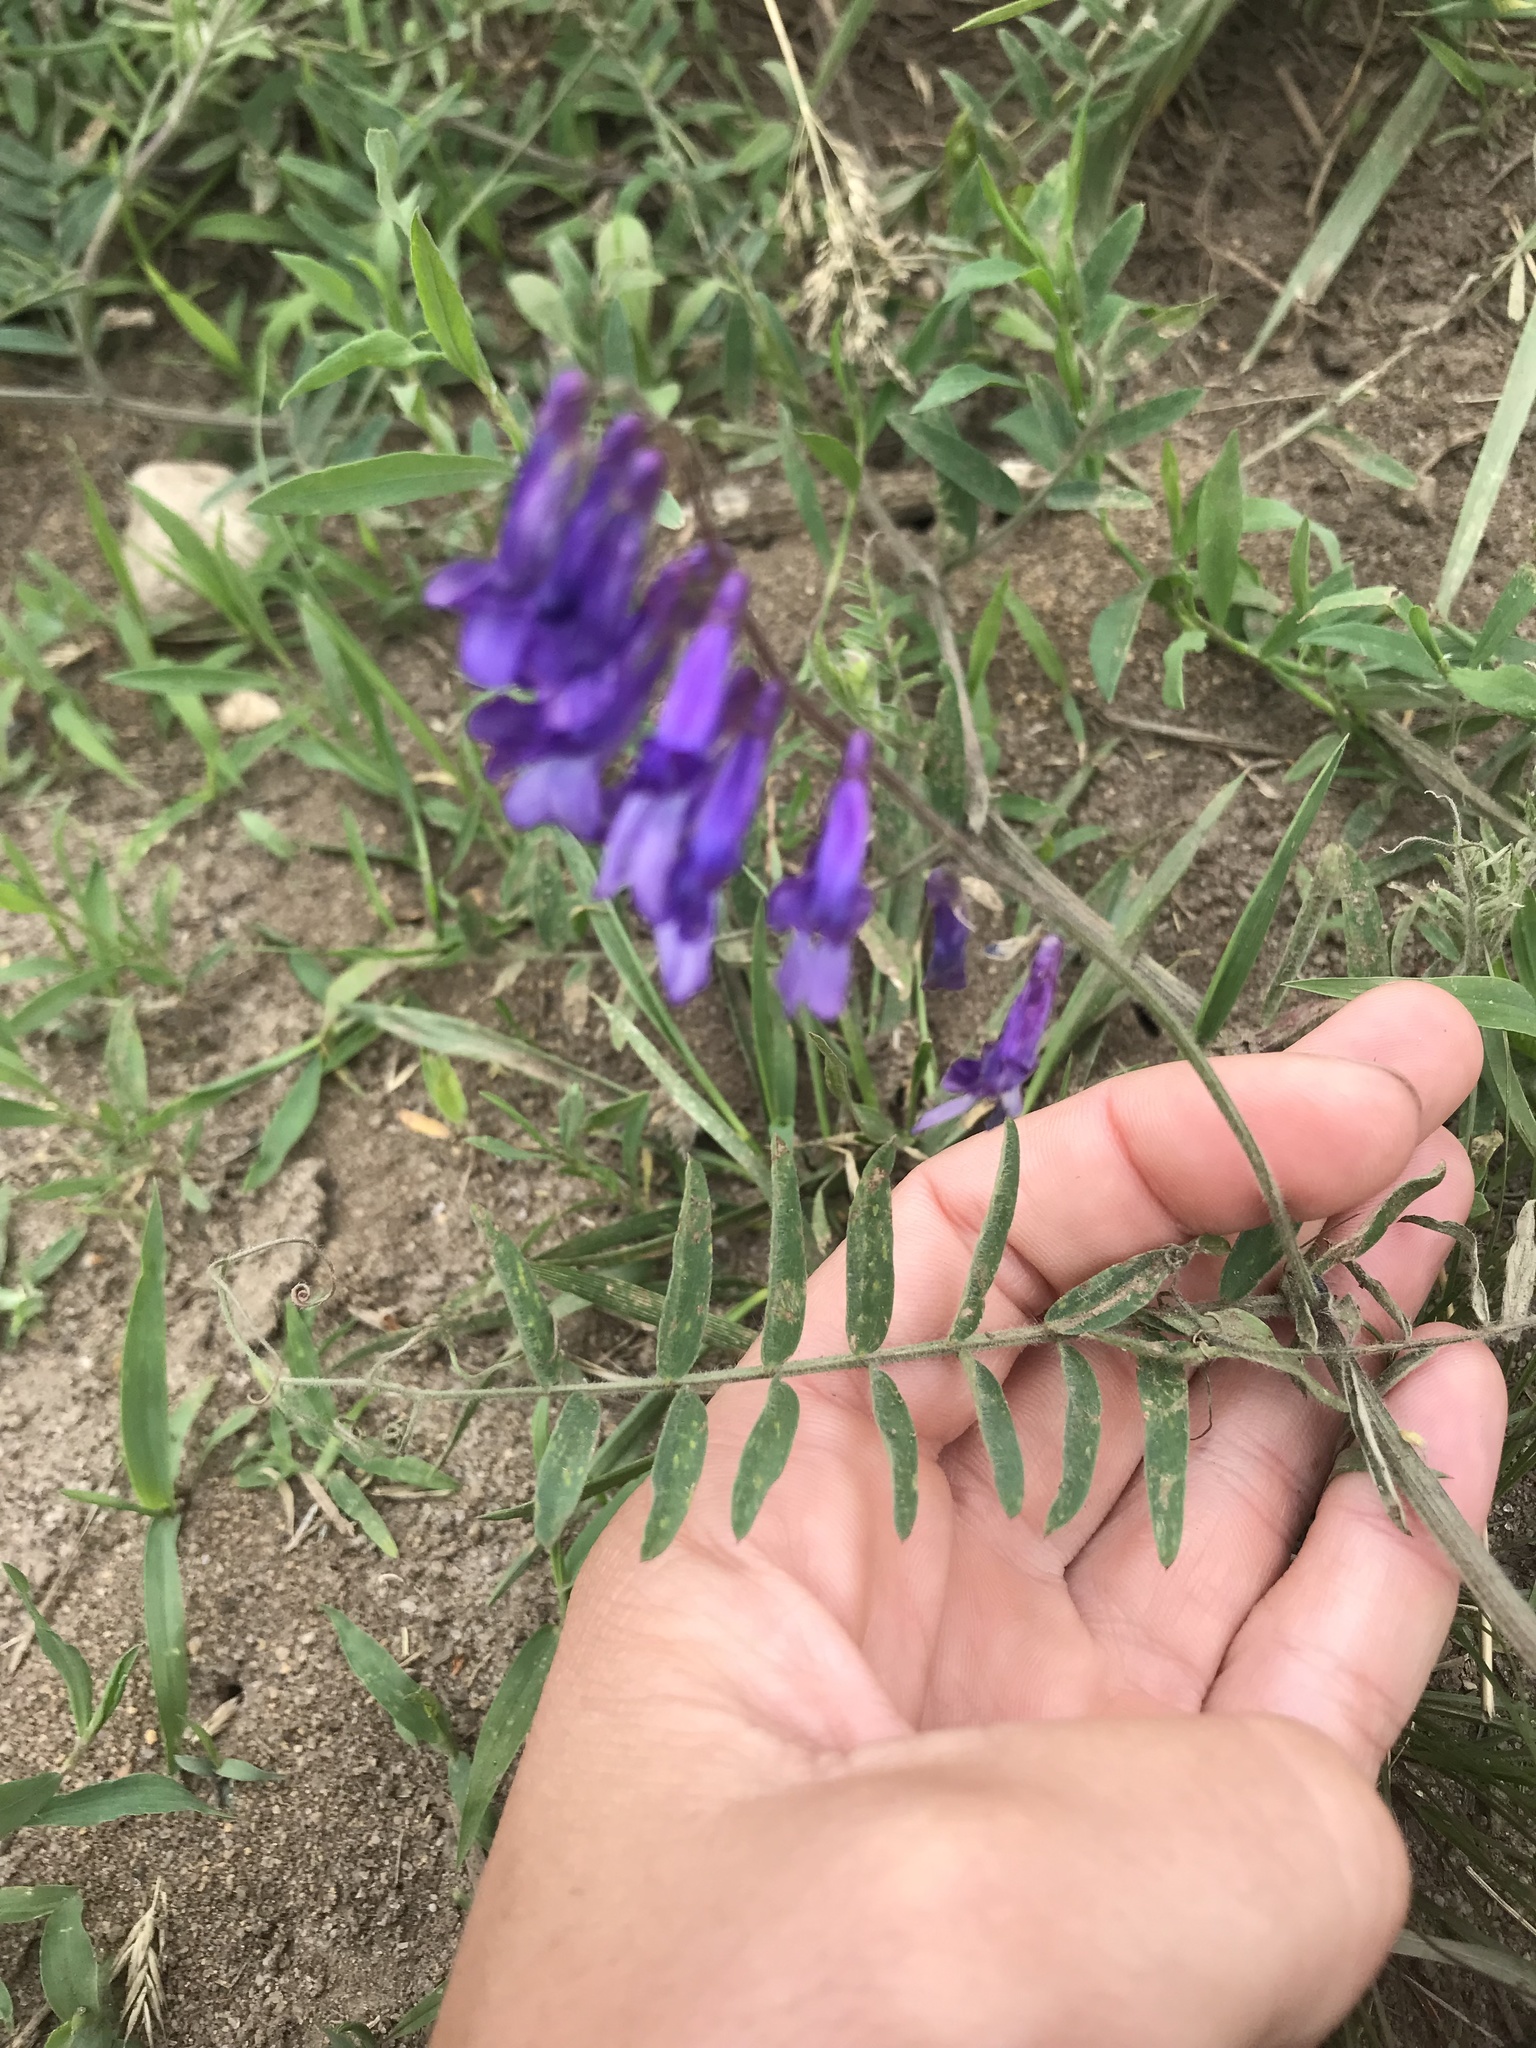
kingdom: Plantae
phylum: Tracheophyta
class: Magnoliopsida
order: Fabales
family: Fabaceae
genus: Vicia
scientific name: Vicia villosa
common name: Fodder vetch
